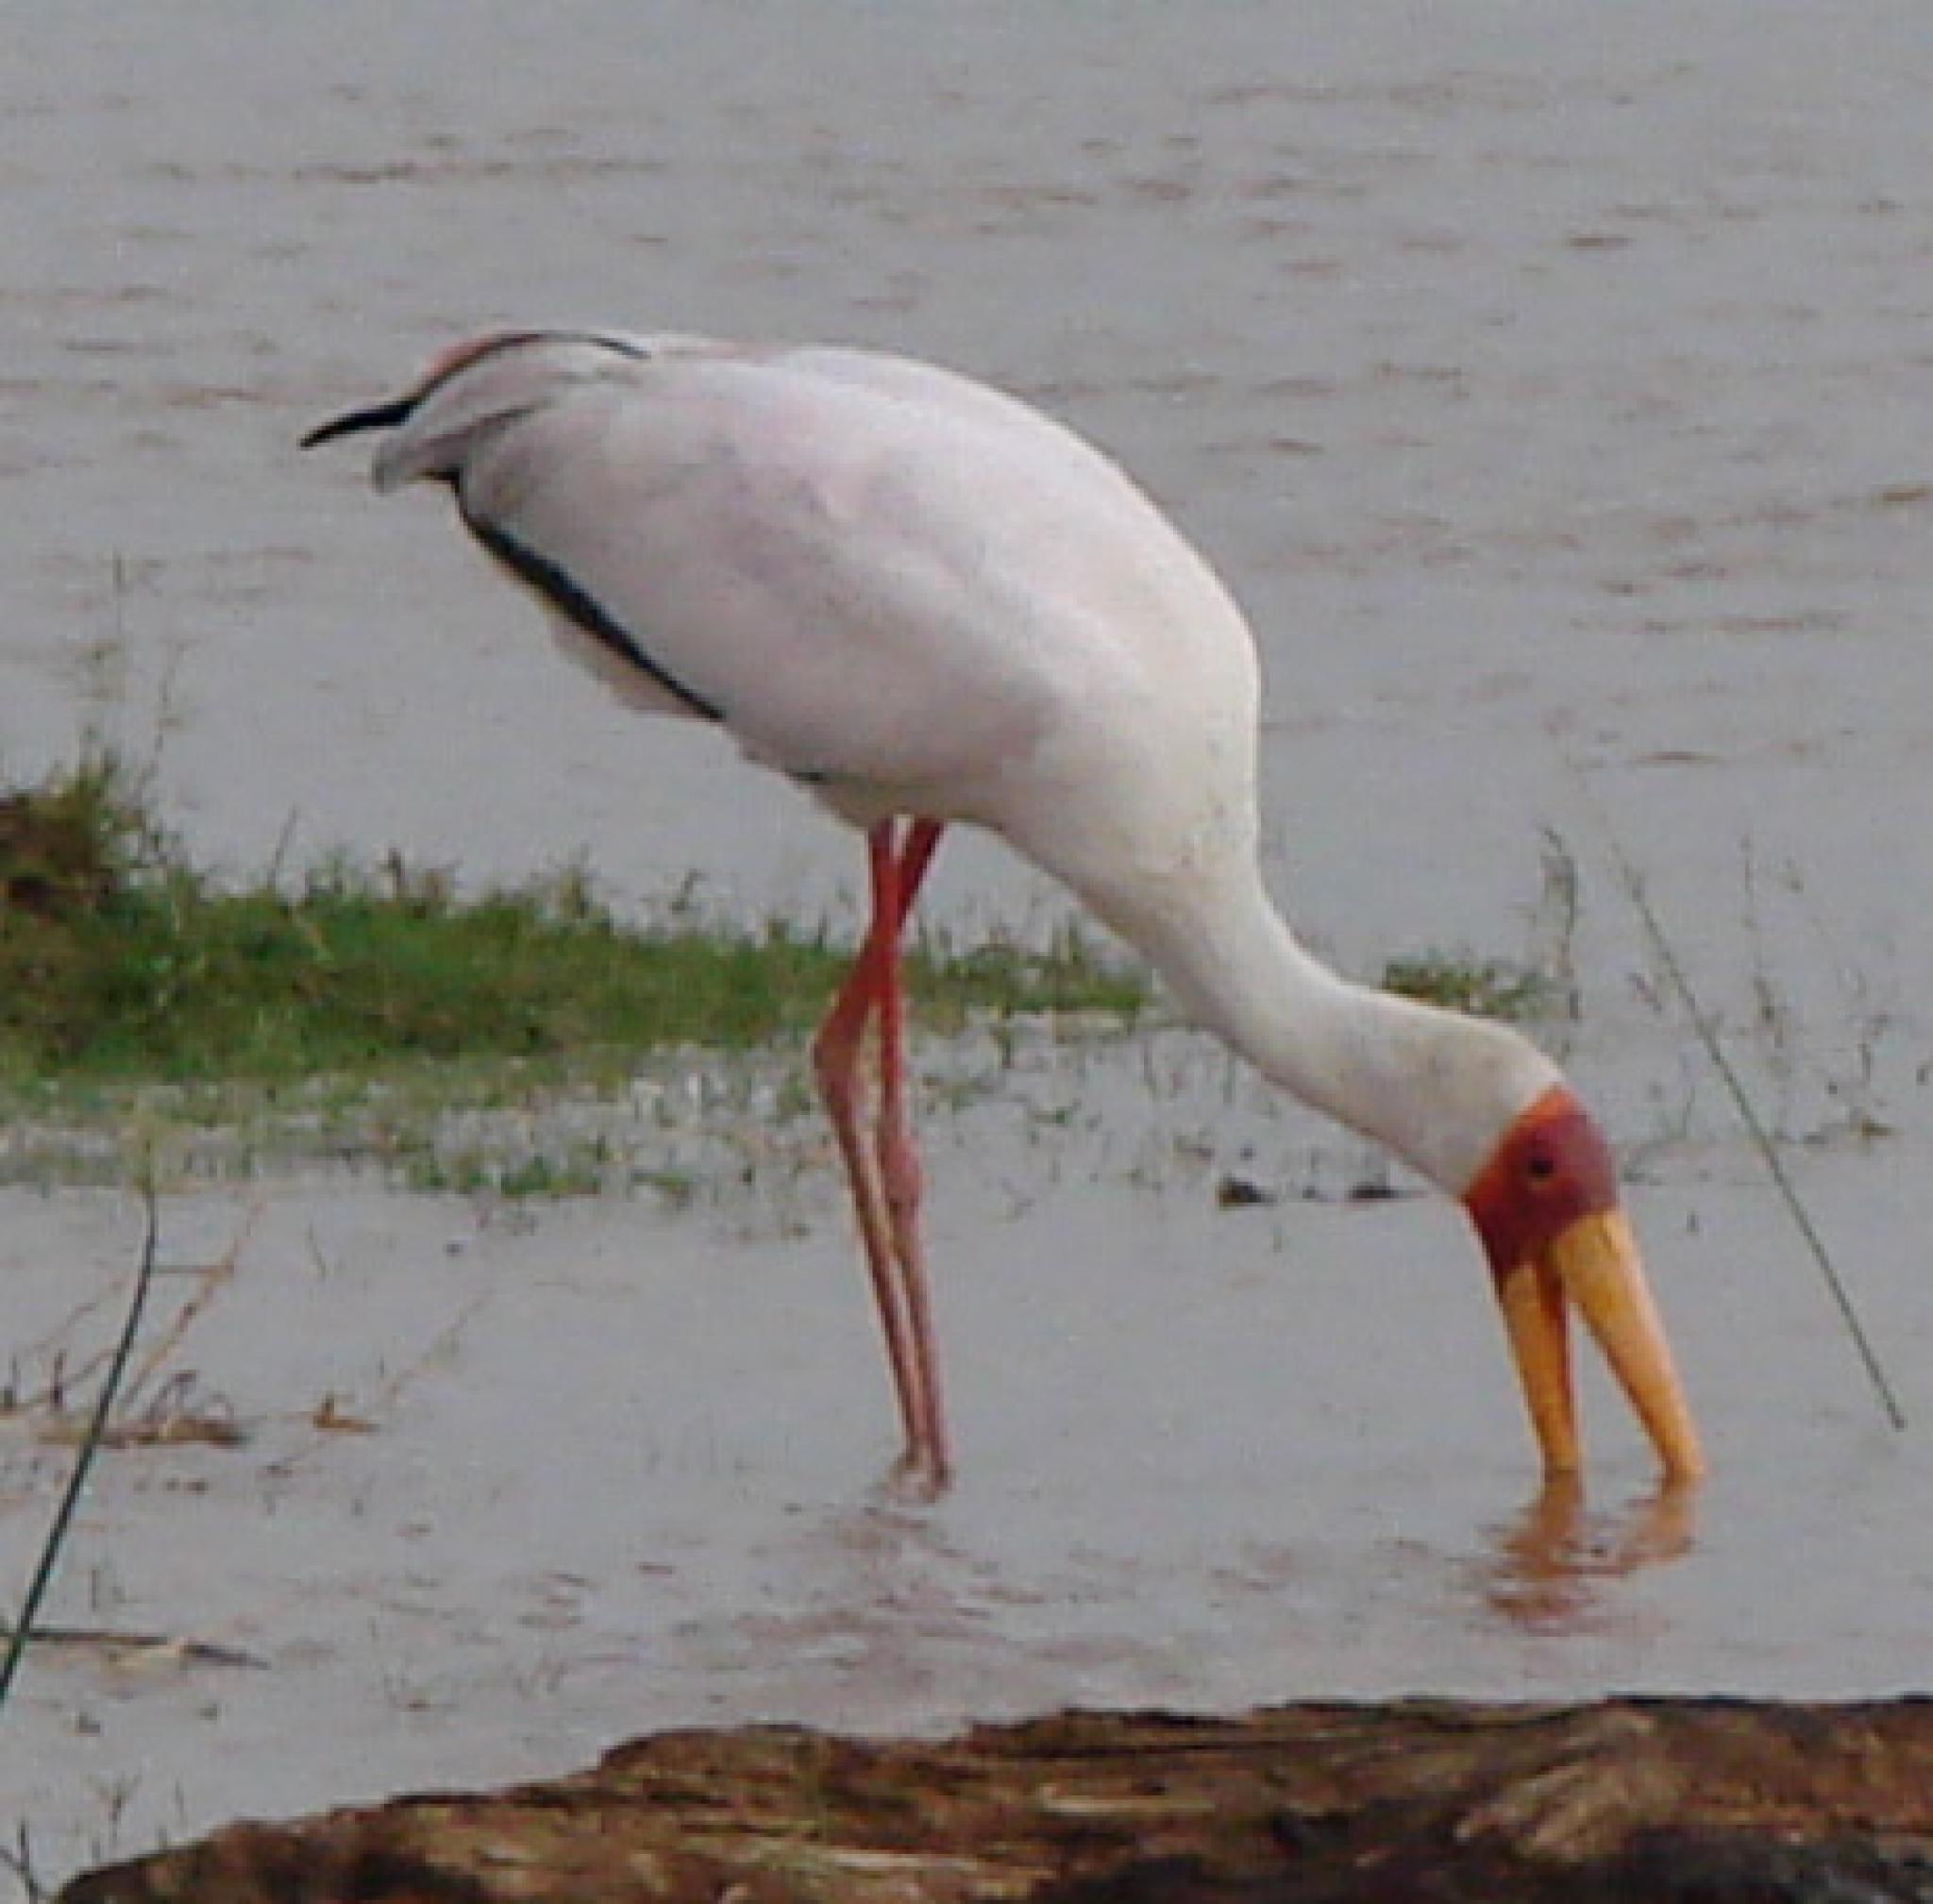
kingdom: Animalia
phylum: Chordata
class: Aves
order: Ciconiiformes
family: Ciconiidae
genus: Mycteria
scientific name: Mycteria ibis
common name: Yellow-billed stork
